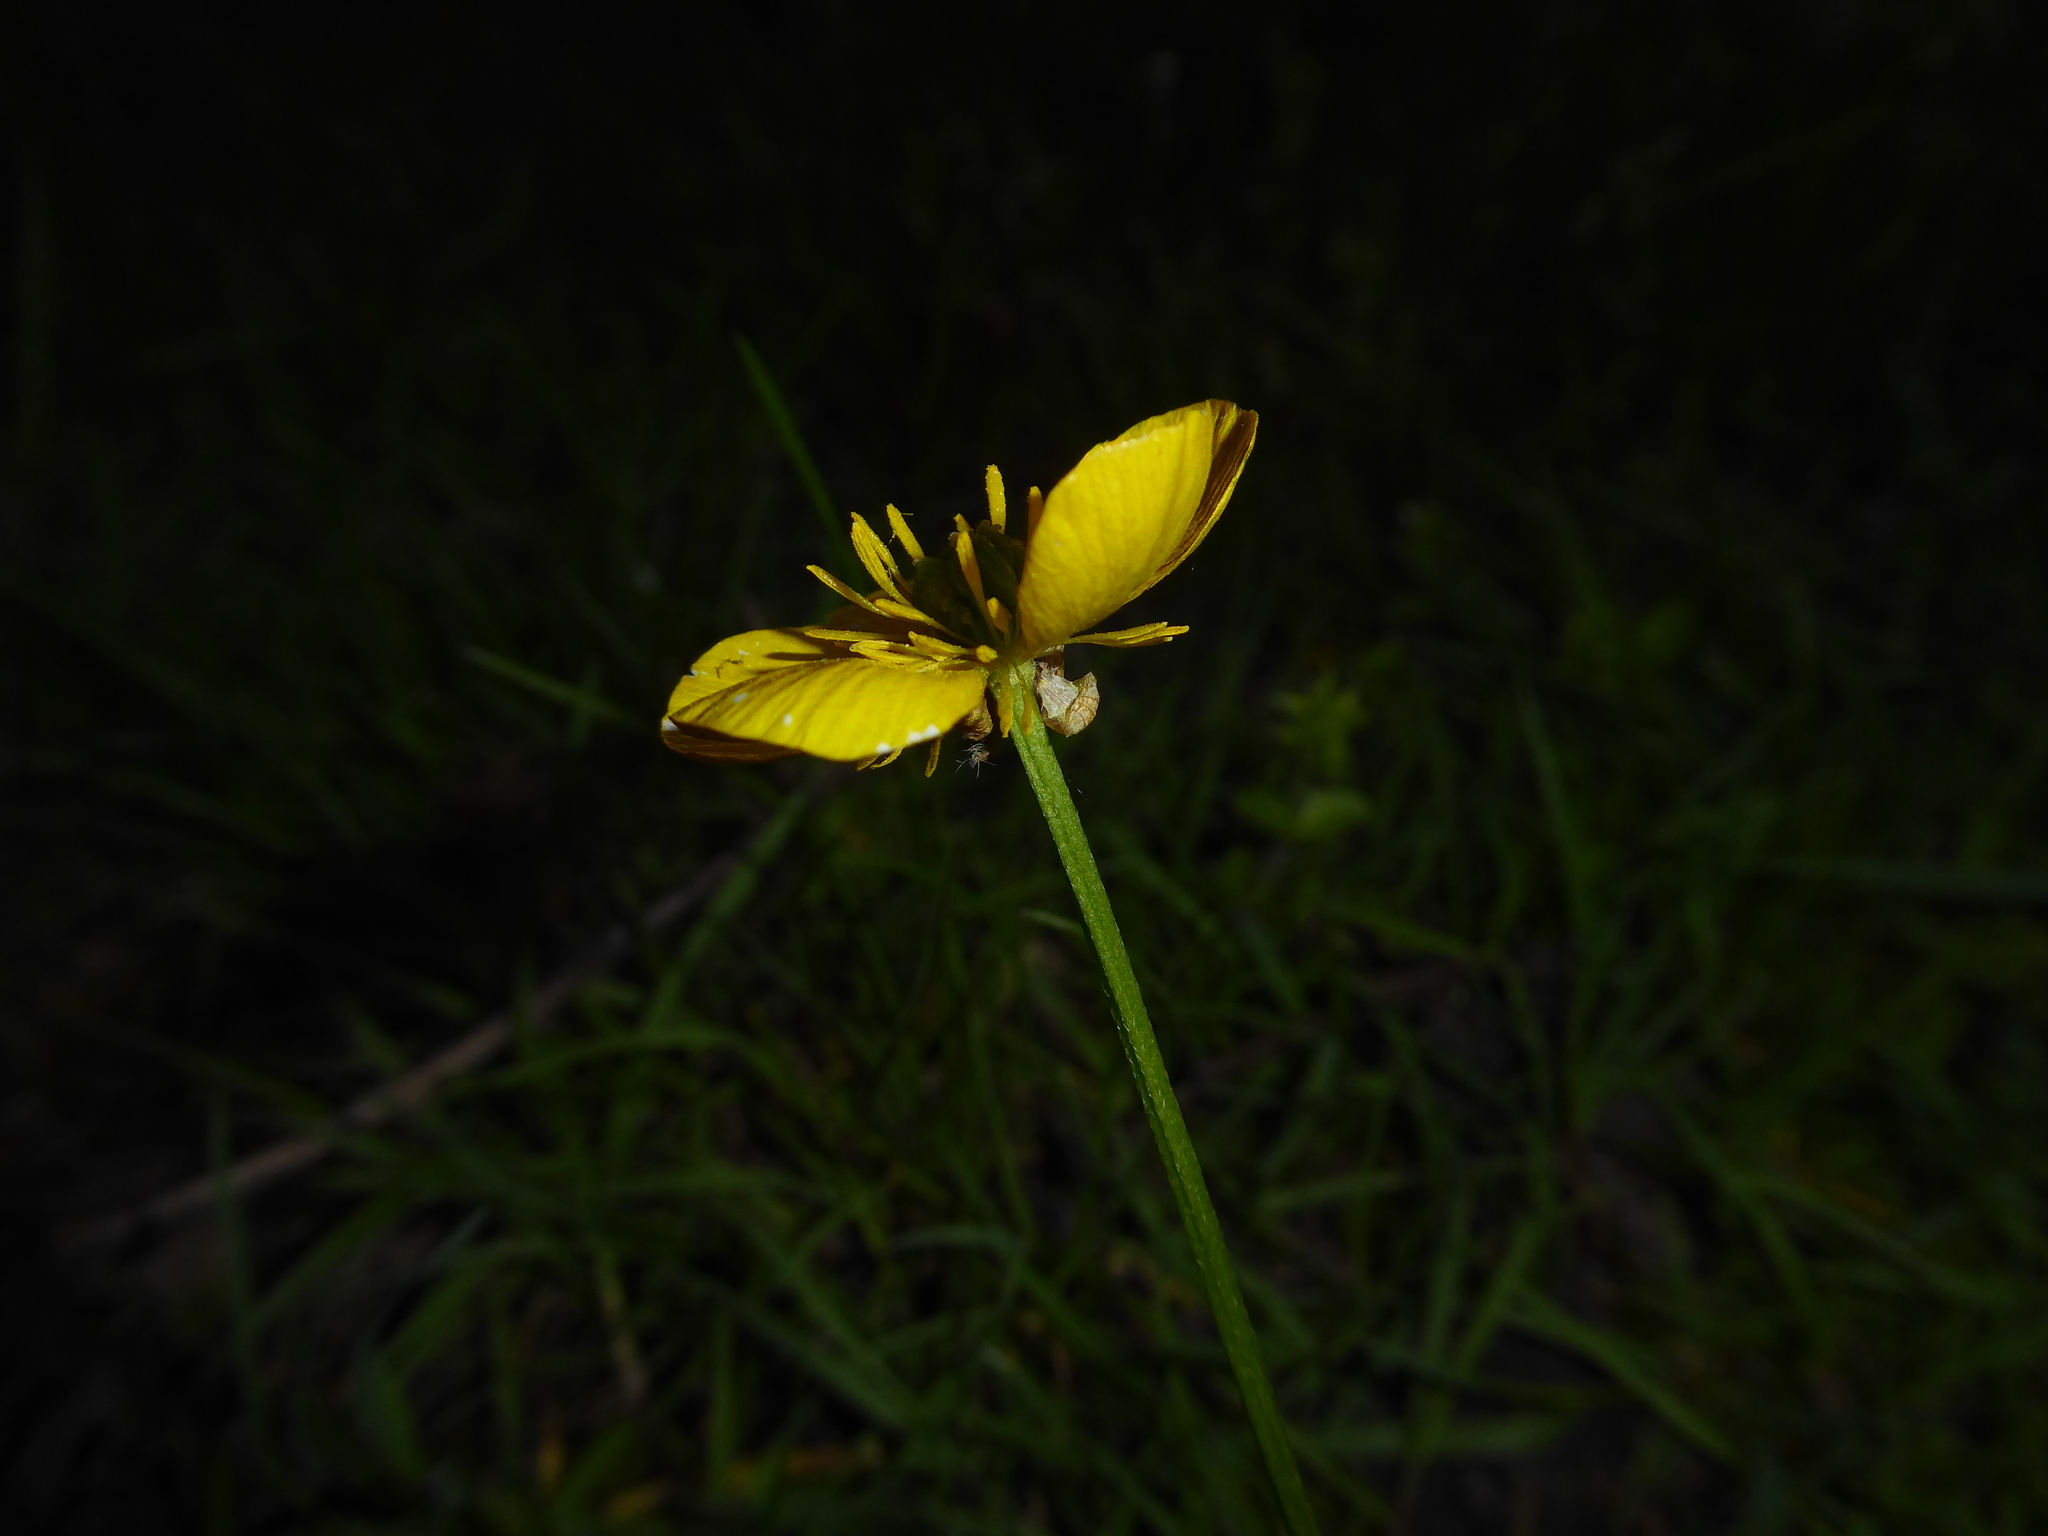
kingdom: Plantae
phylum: Tracheophyta
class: Magnoliopsida
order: Ranunculales
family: Ranunculaceae
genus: Ranunculus
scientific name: Ranunculus repens
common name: Creeping buttercup
